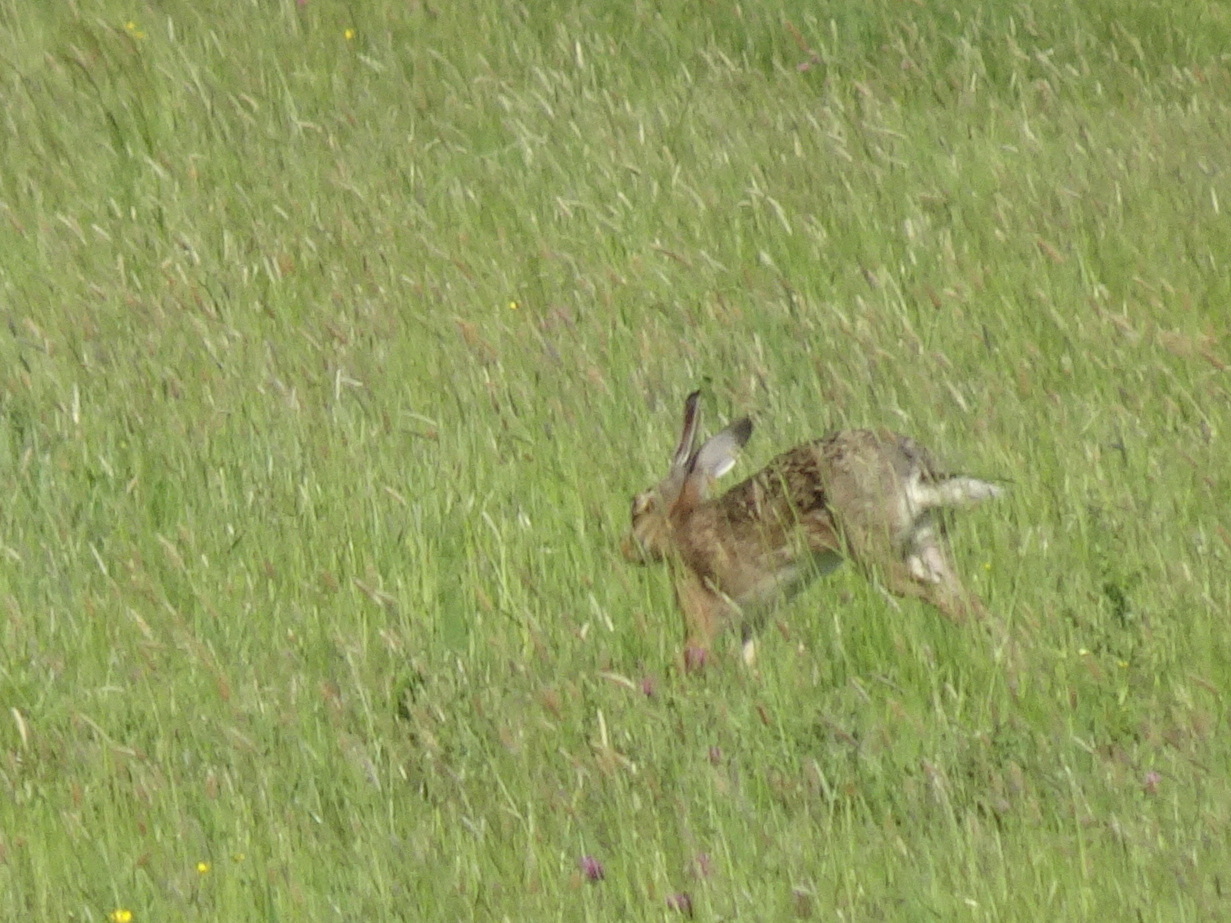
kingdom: Animalia
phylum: Chordata
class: Mammalia
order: Lagomorpha
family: Leporidae
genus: Lepus
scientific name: Lepus europaeus
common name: European hare
